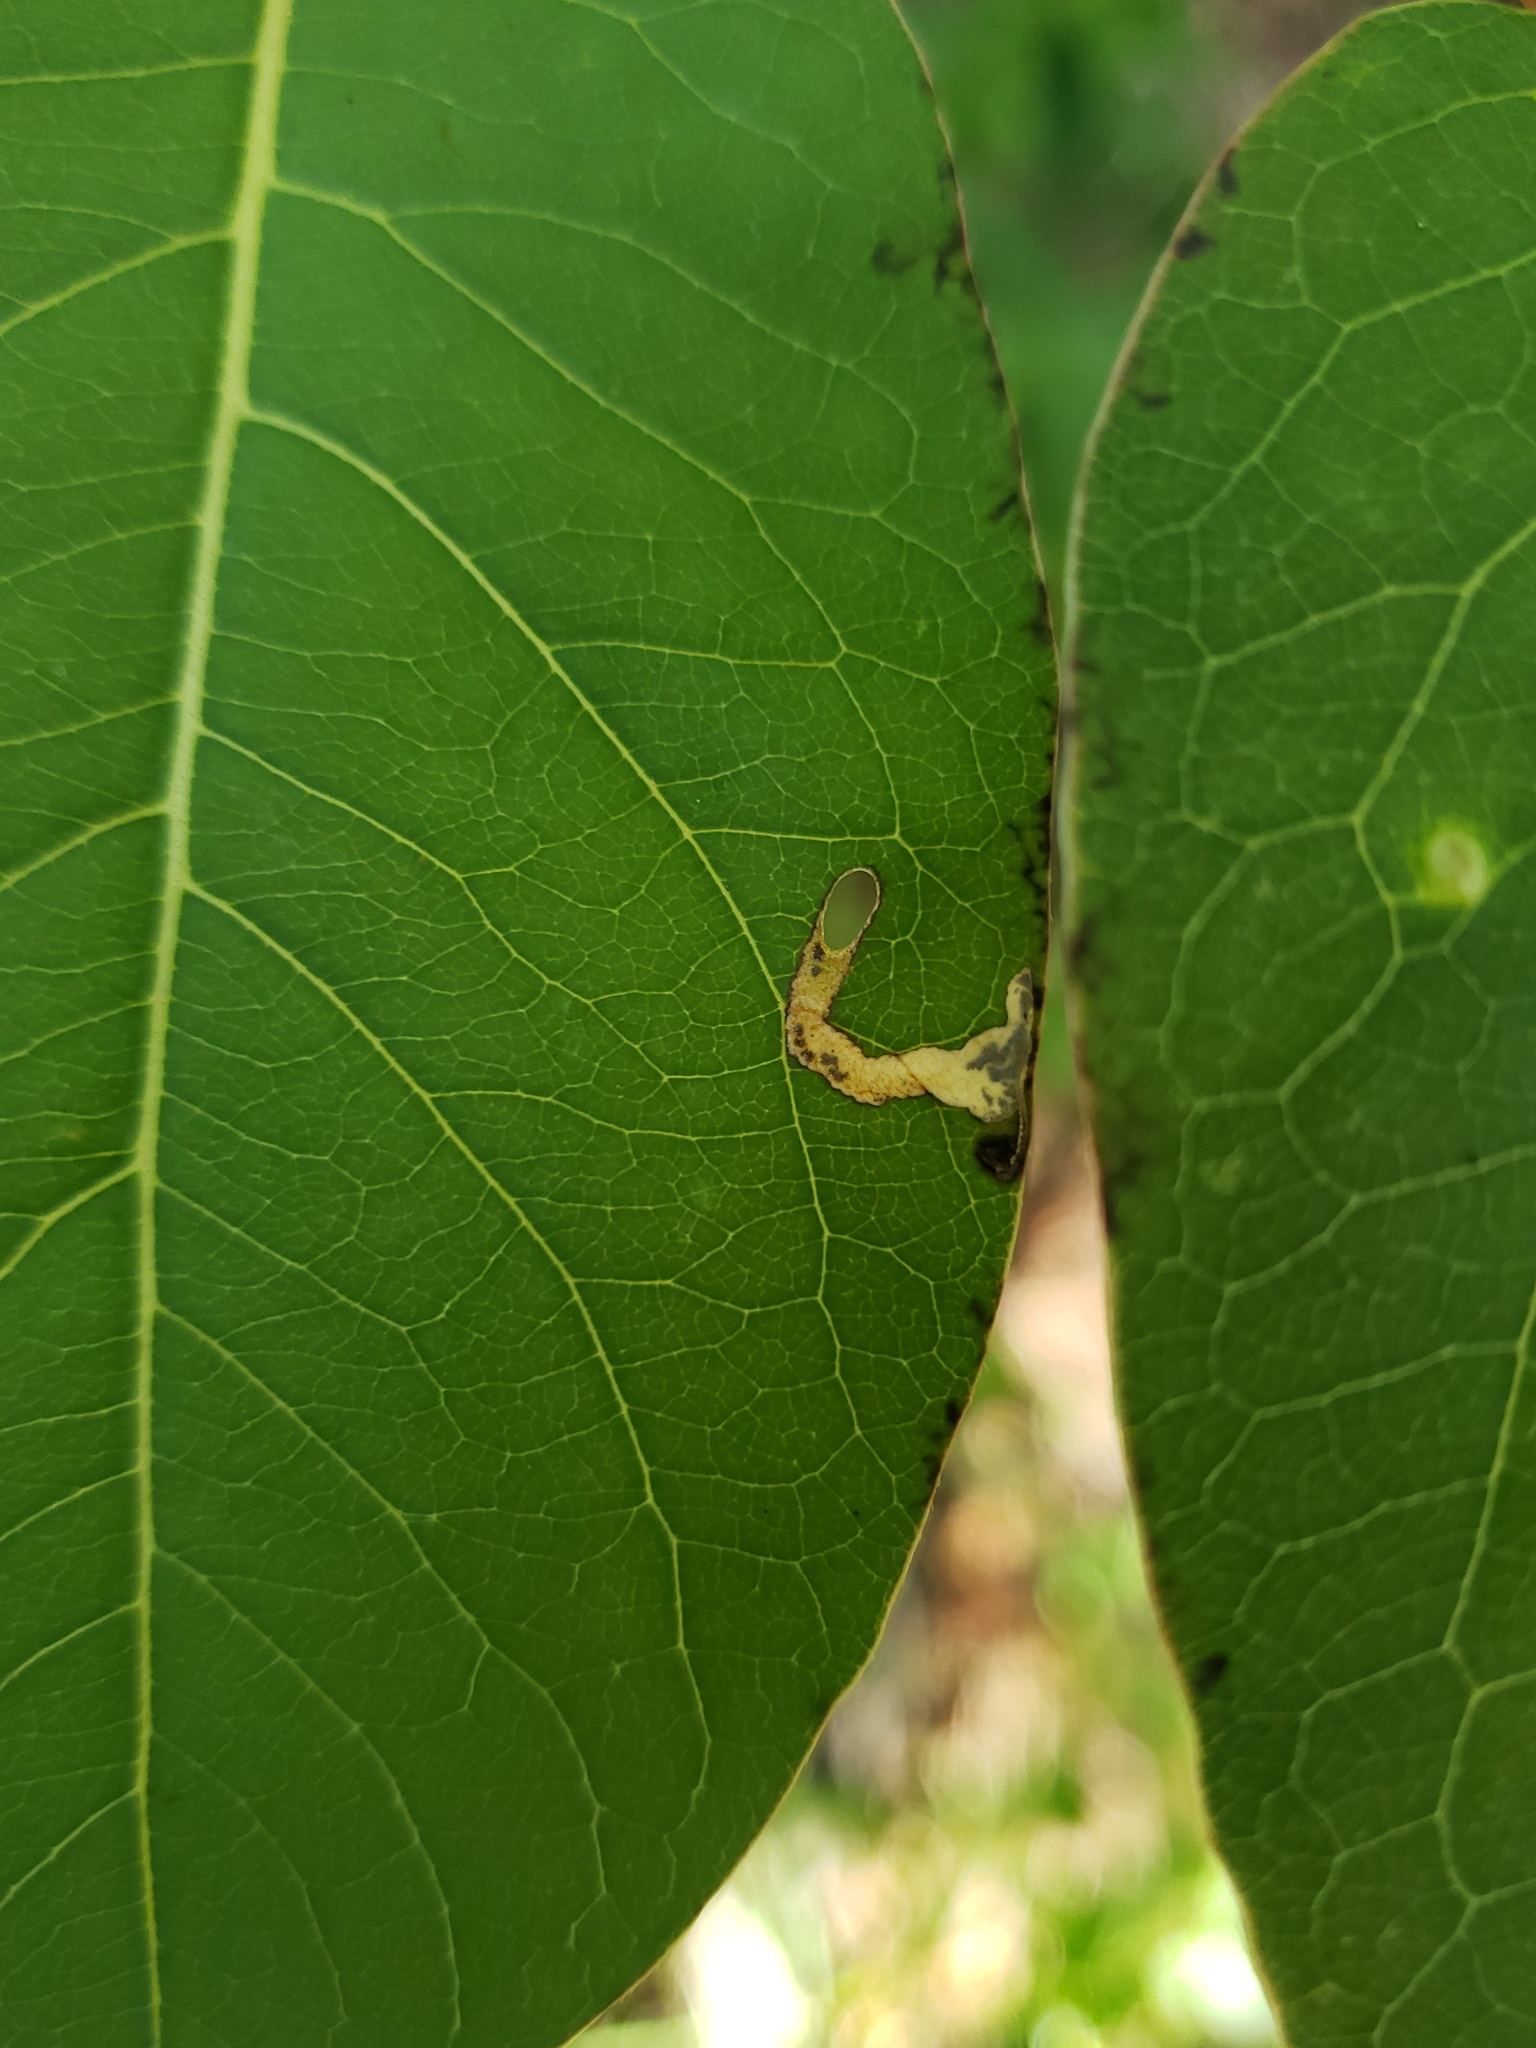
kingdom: Animalia
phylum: Arthropoda
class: Insecta
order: Lepidoptera
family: Heliozelidae
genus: Coptodisca
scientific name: Coptodisca diospyriella
